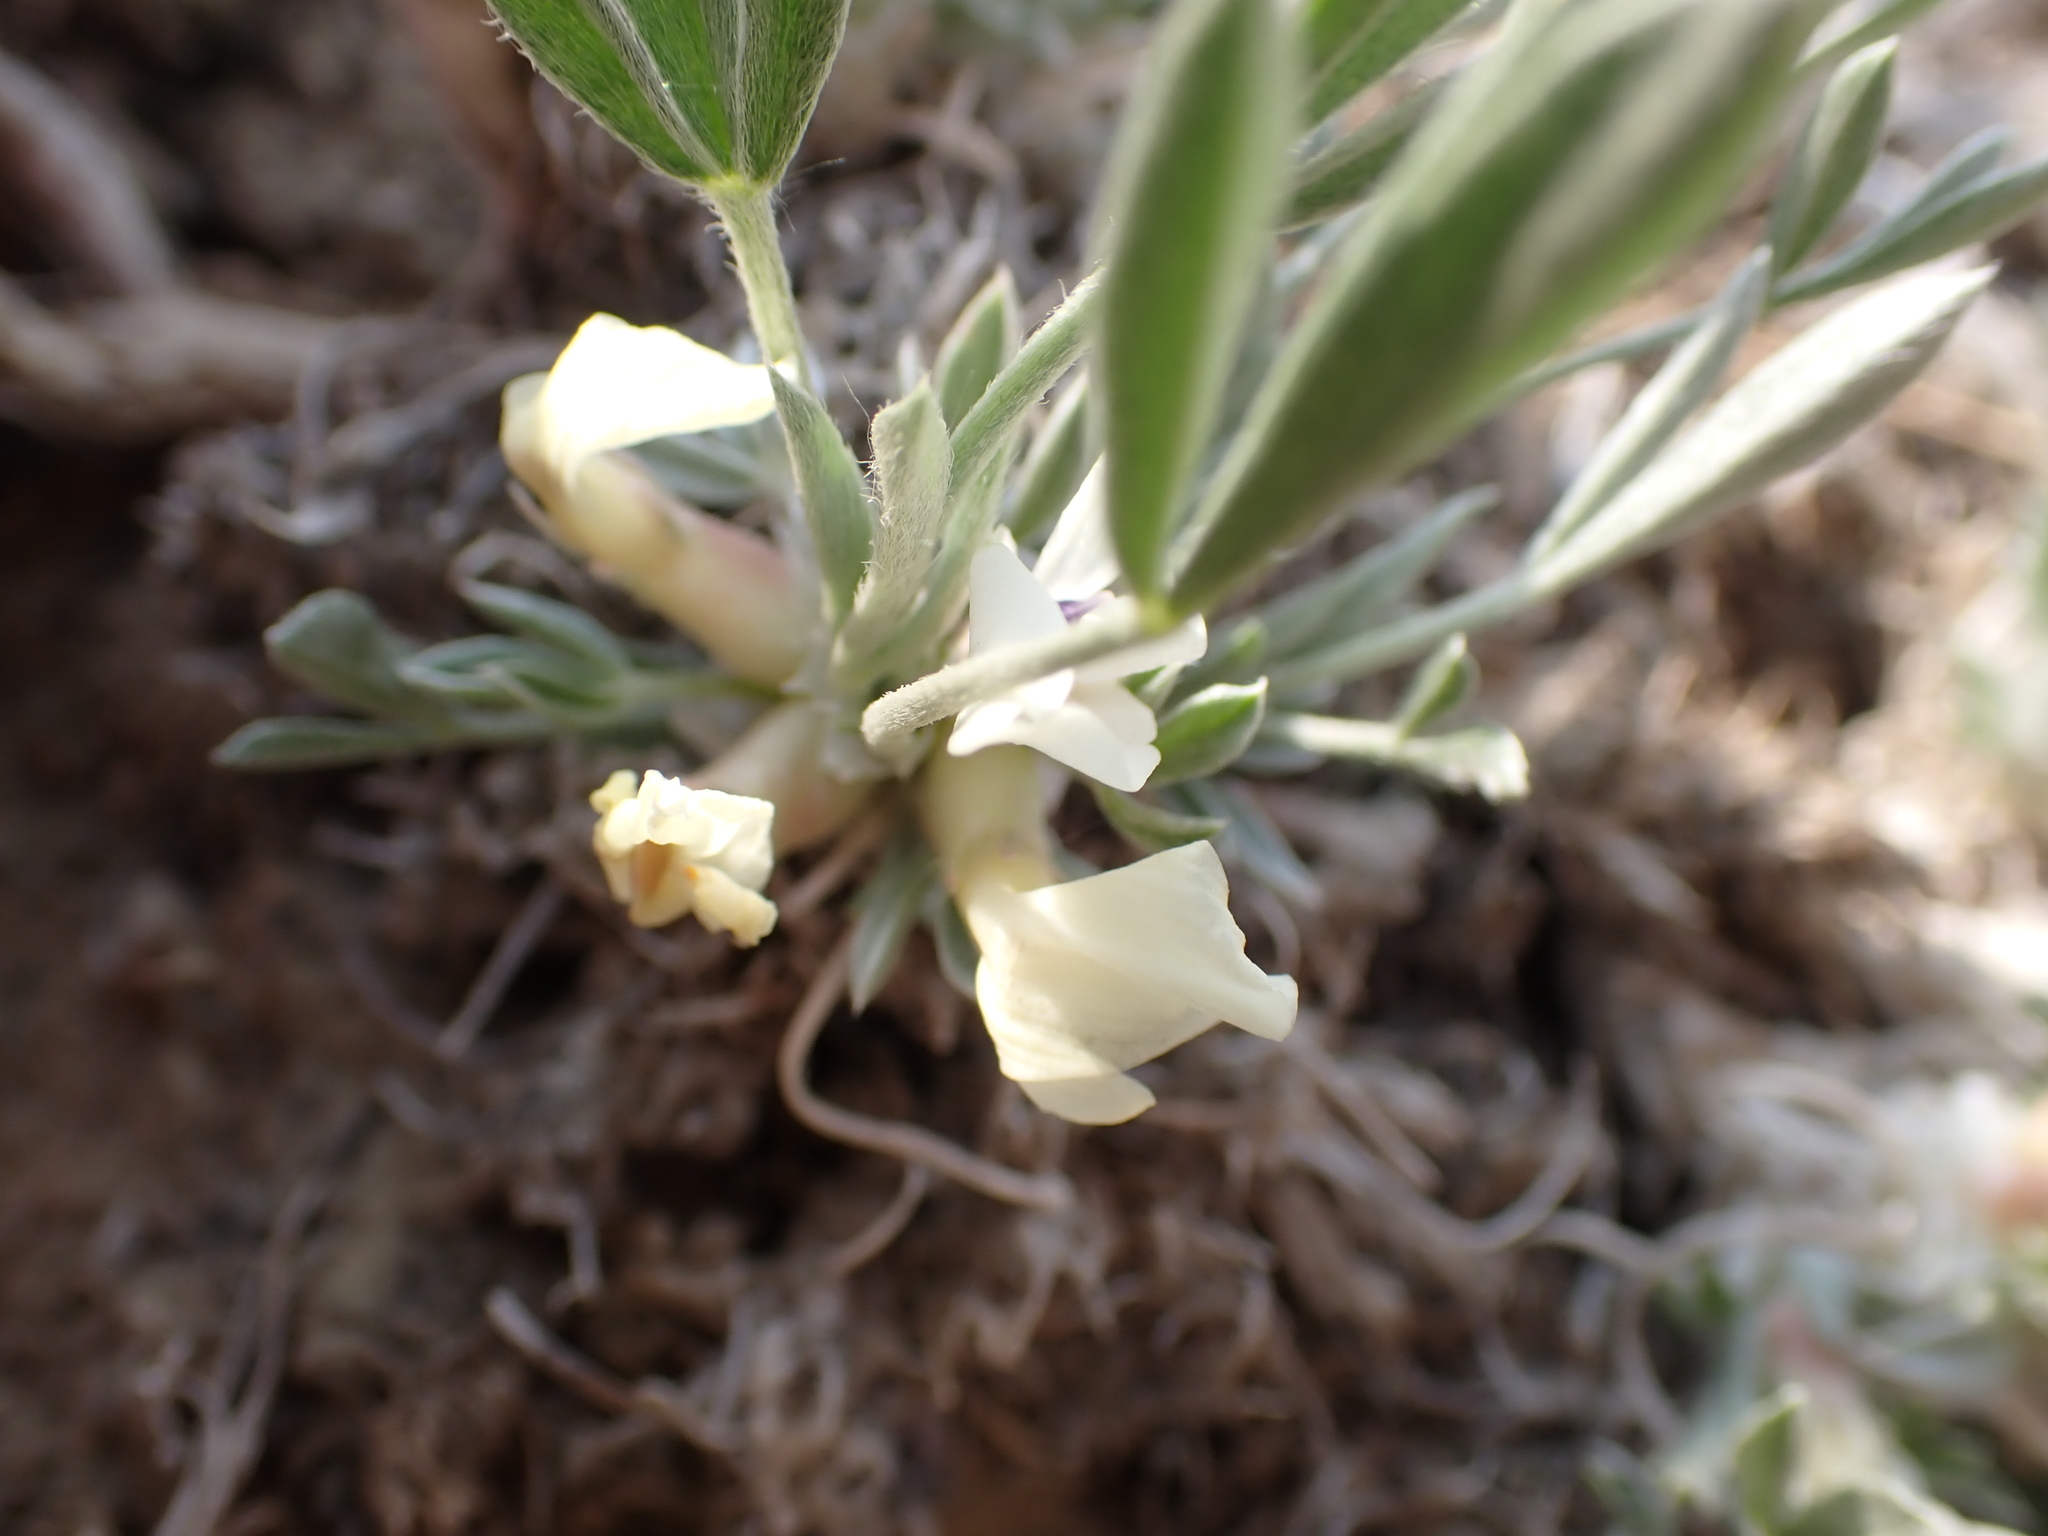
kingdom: Plantae
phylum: Tracheophyta
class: Magnoliopsida
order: Fabales
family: Fabaceae
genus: Astragalus
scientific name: Astragalus gilviflorus
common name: Cushion milk-vetch
